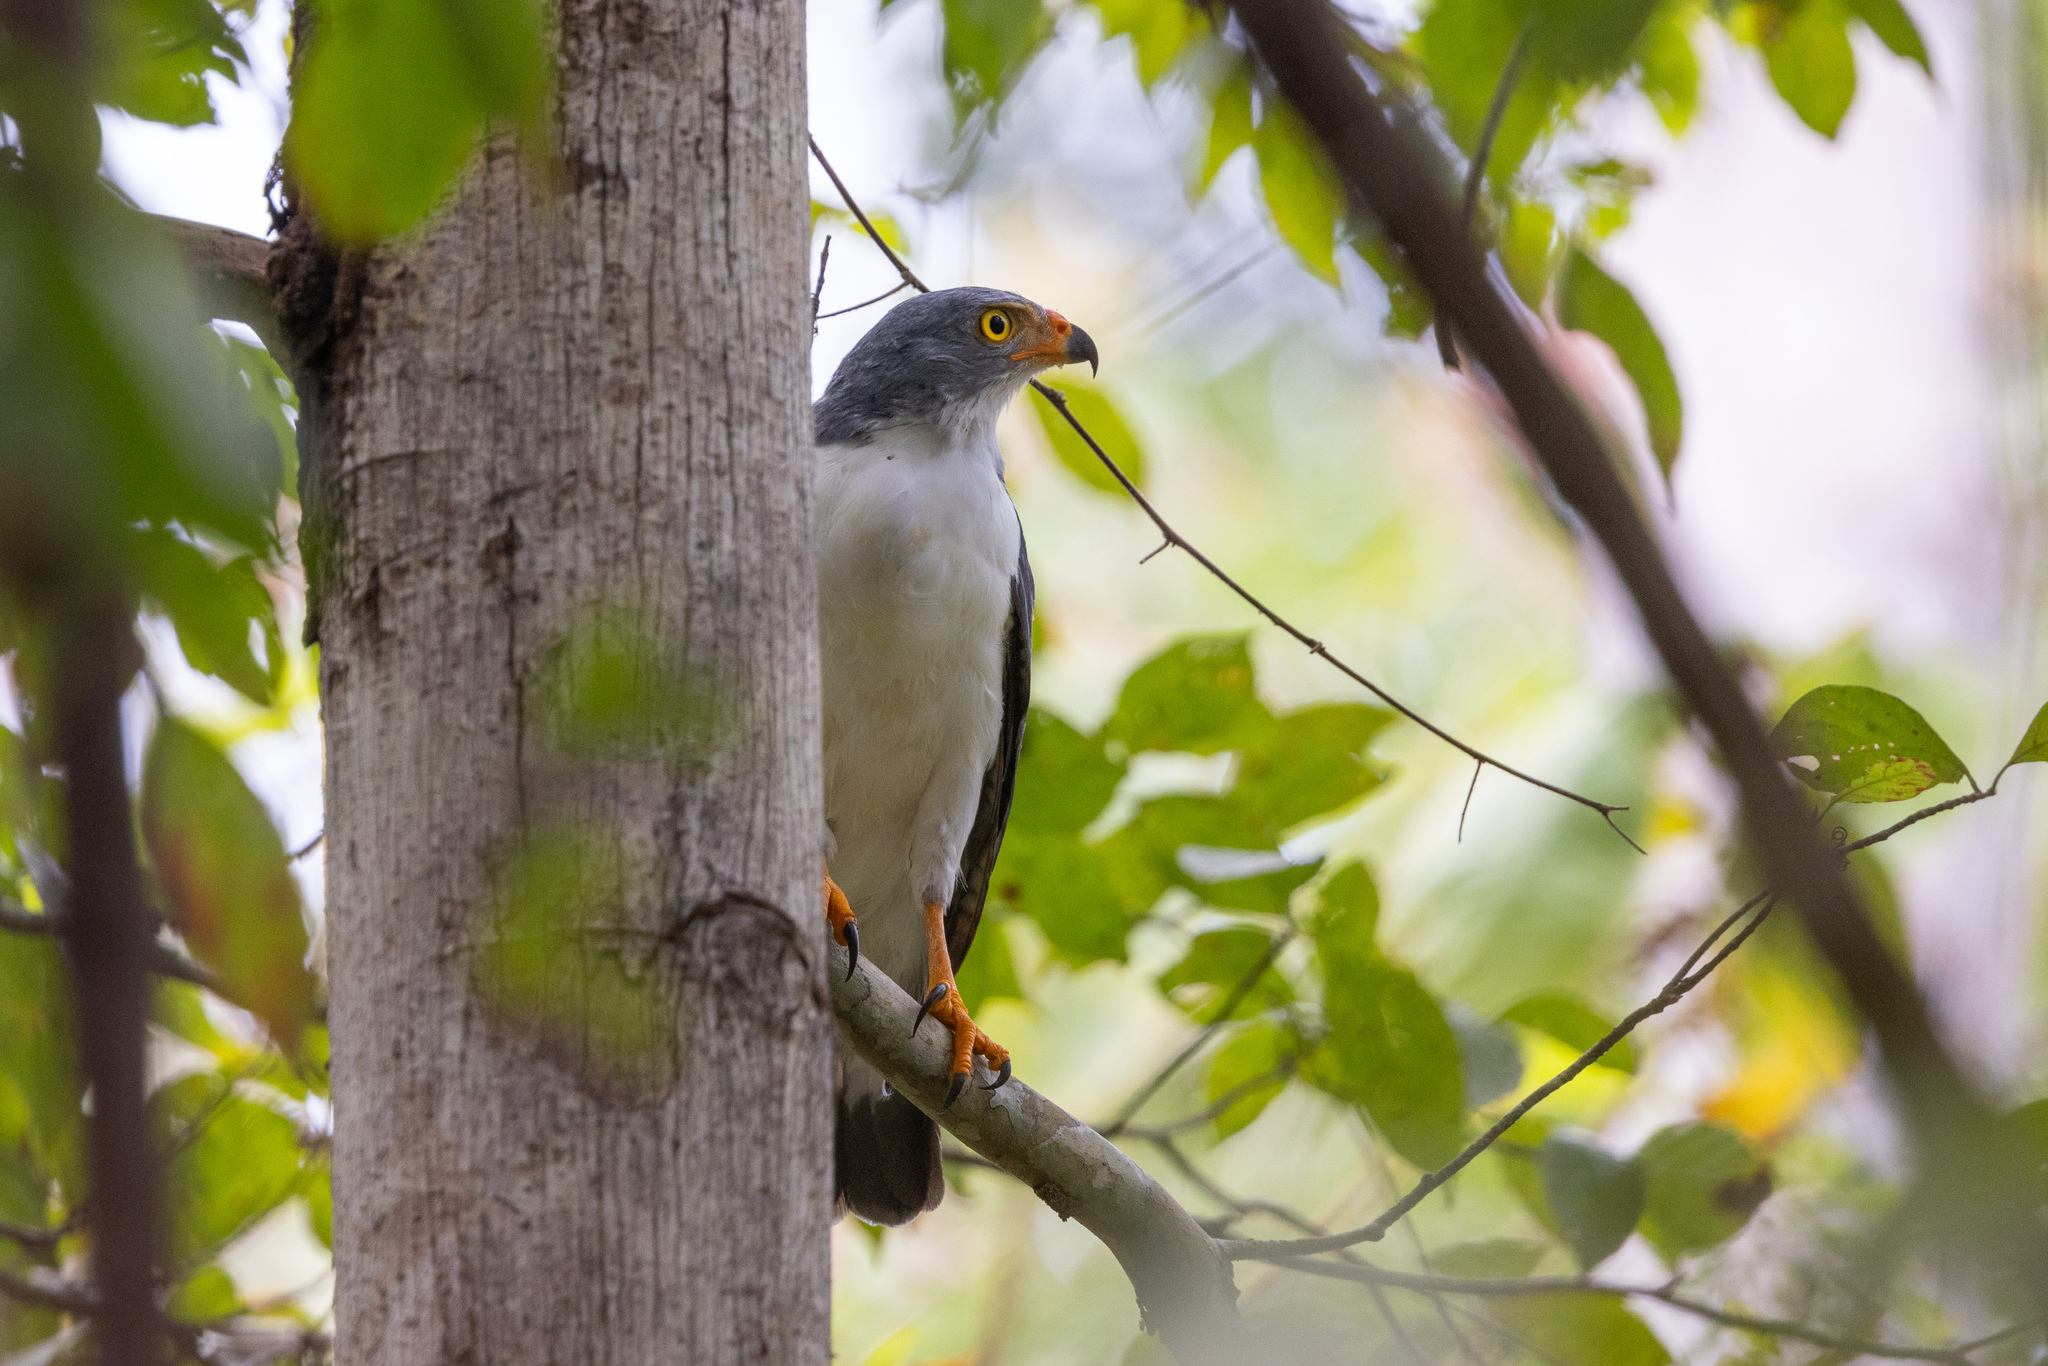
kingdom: Animalia
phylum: Chordata
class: Aves
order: Accipitriformes
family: Accipitridae
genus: Leucopternis
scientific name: Leucopternis semiplumbeus
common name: Semiplumbeous hawk
